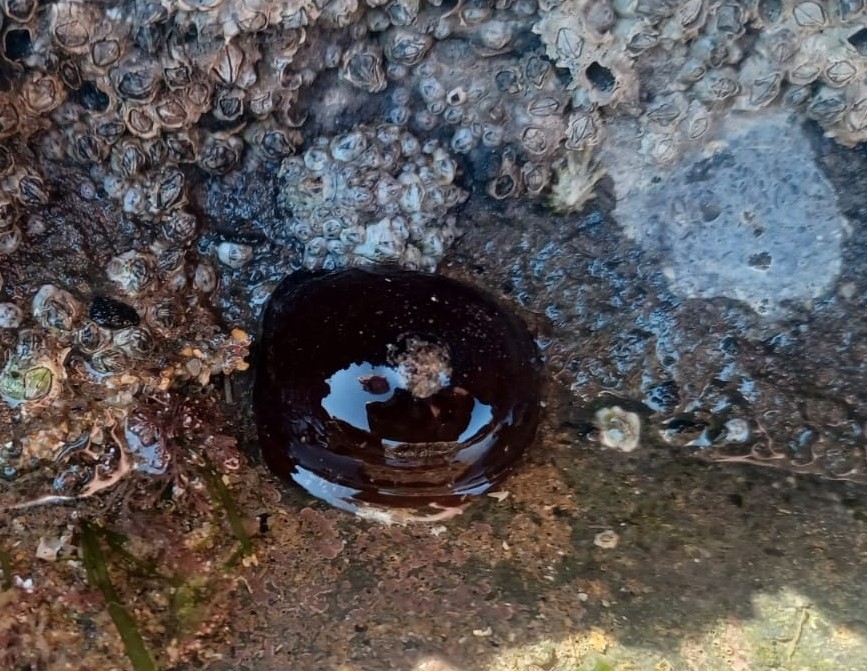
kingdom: Animalia
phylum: Cnidaria
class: Anthozoa
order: Actiniaria
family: Actiniidae
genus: Actinia
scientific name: Actinia equina
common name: Beadlet anemone
